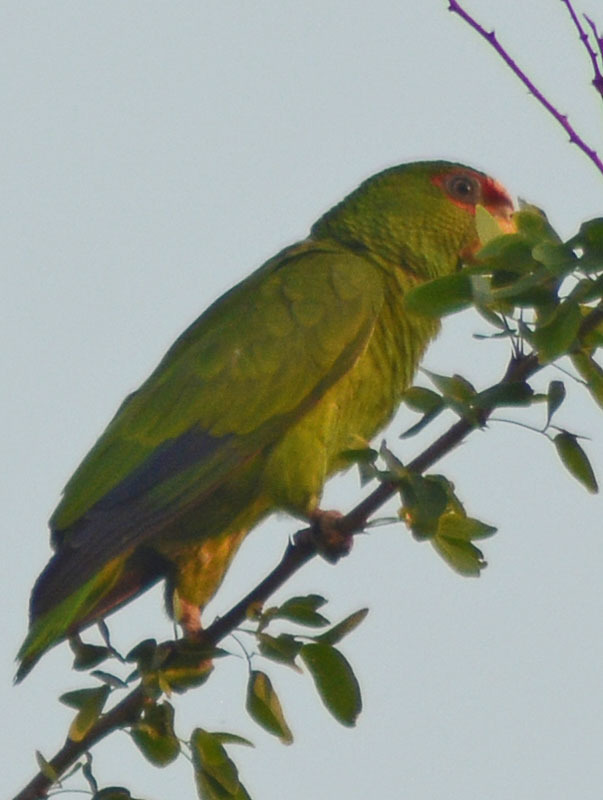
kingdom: Animalia
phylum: Chordata
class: Aves
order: Psittaciformes
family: Psittacidae
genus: Amazona
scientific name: Amazona albifrons
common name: White-fronted amazon
